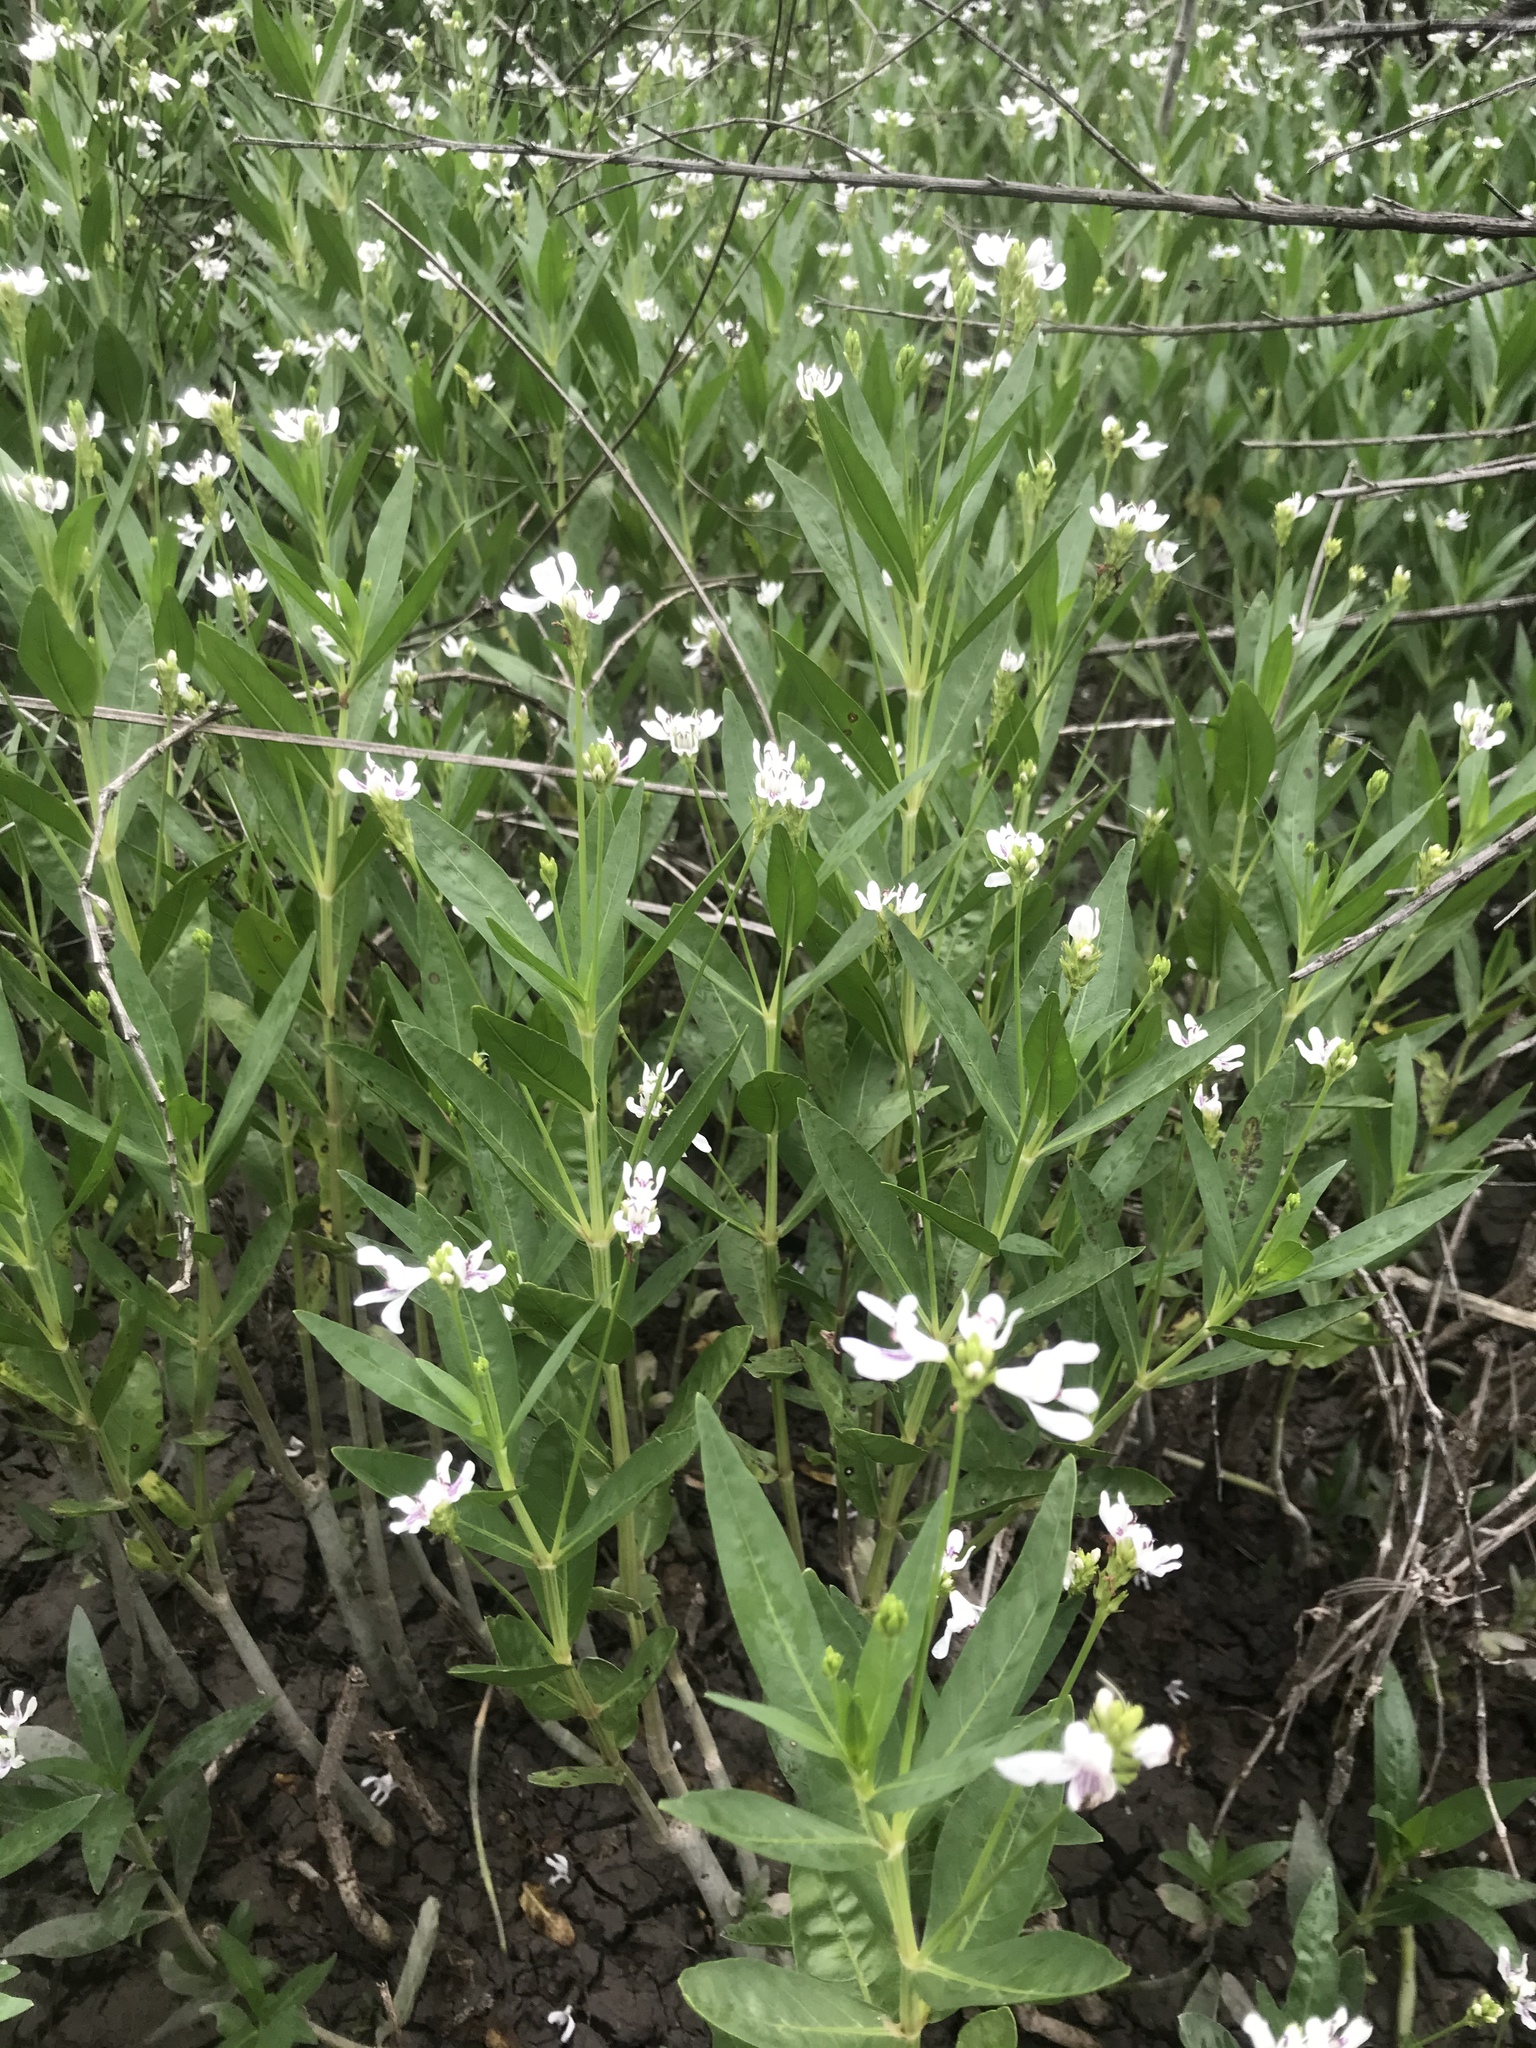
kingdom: Plantae
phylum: Tracheophyta
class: Magnoliopsida
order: Lamiales
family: Acanthaceae
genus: Dianthera
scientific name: Dianthera americana
